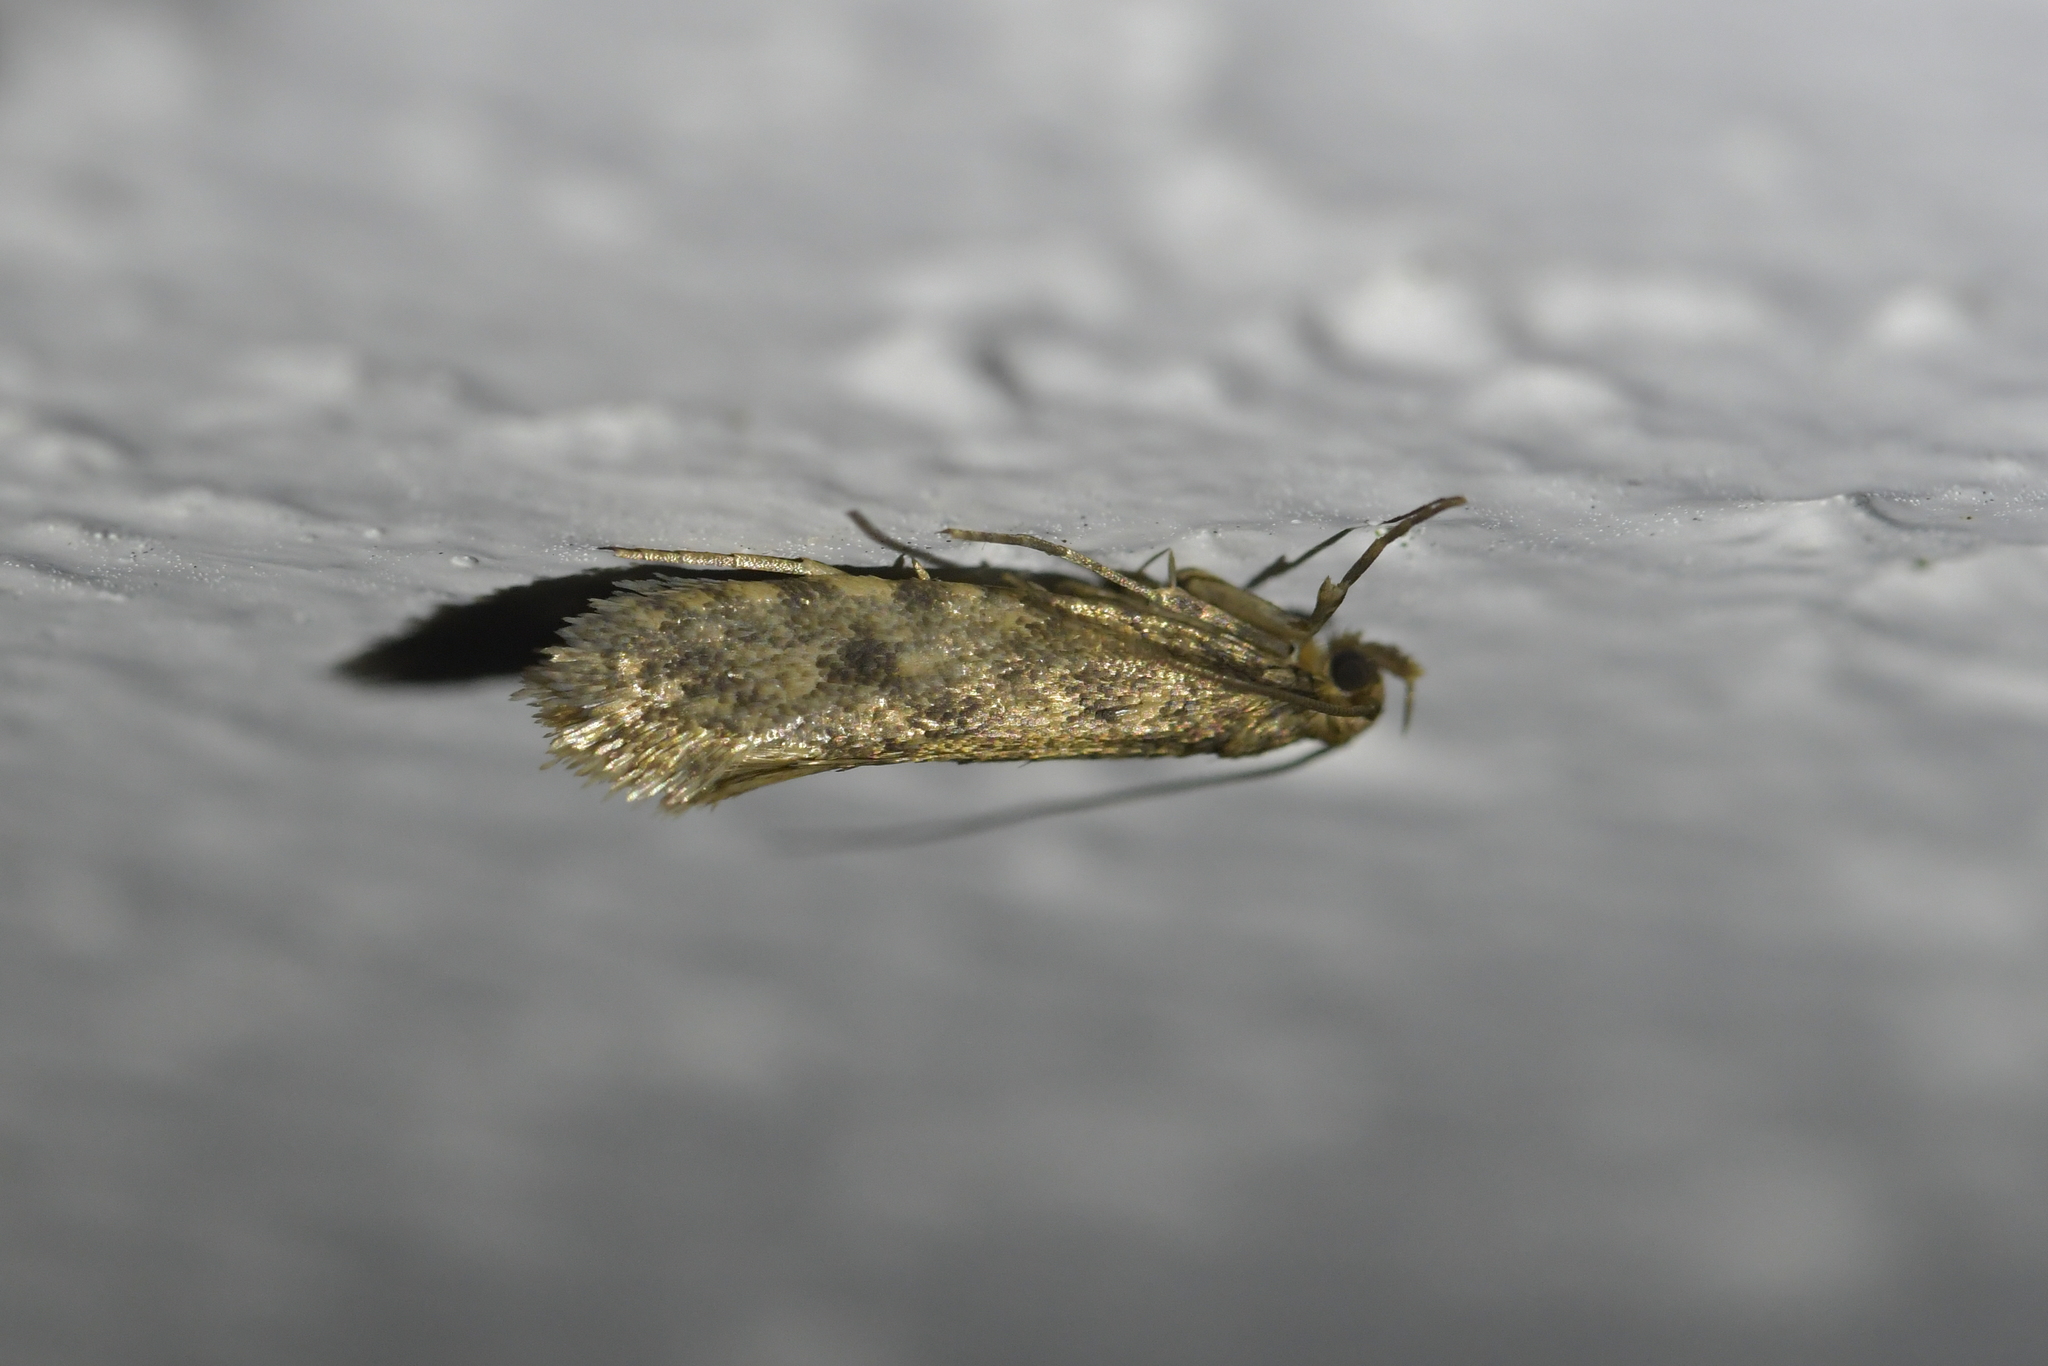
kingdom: Animalia
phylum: Arthropoda
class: Insecta
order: Lepidoptera
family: Tineidae
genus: Lindera
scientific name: Lindera tessellatella
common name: Moth
